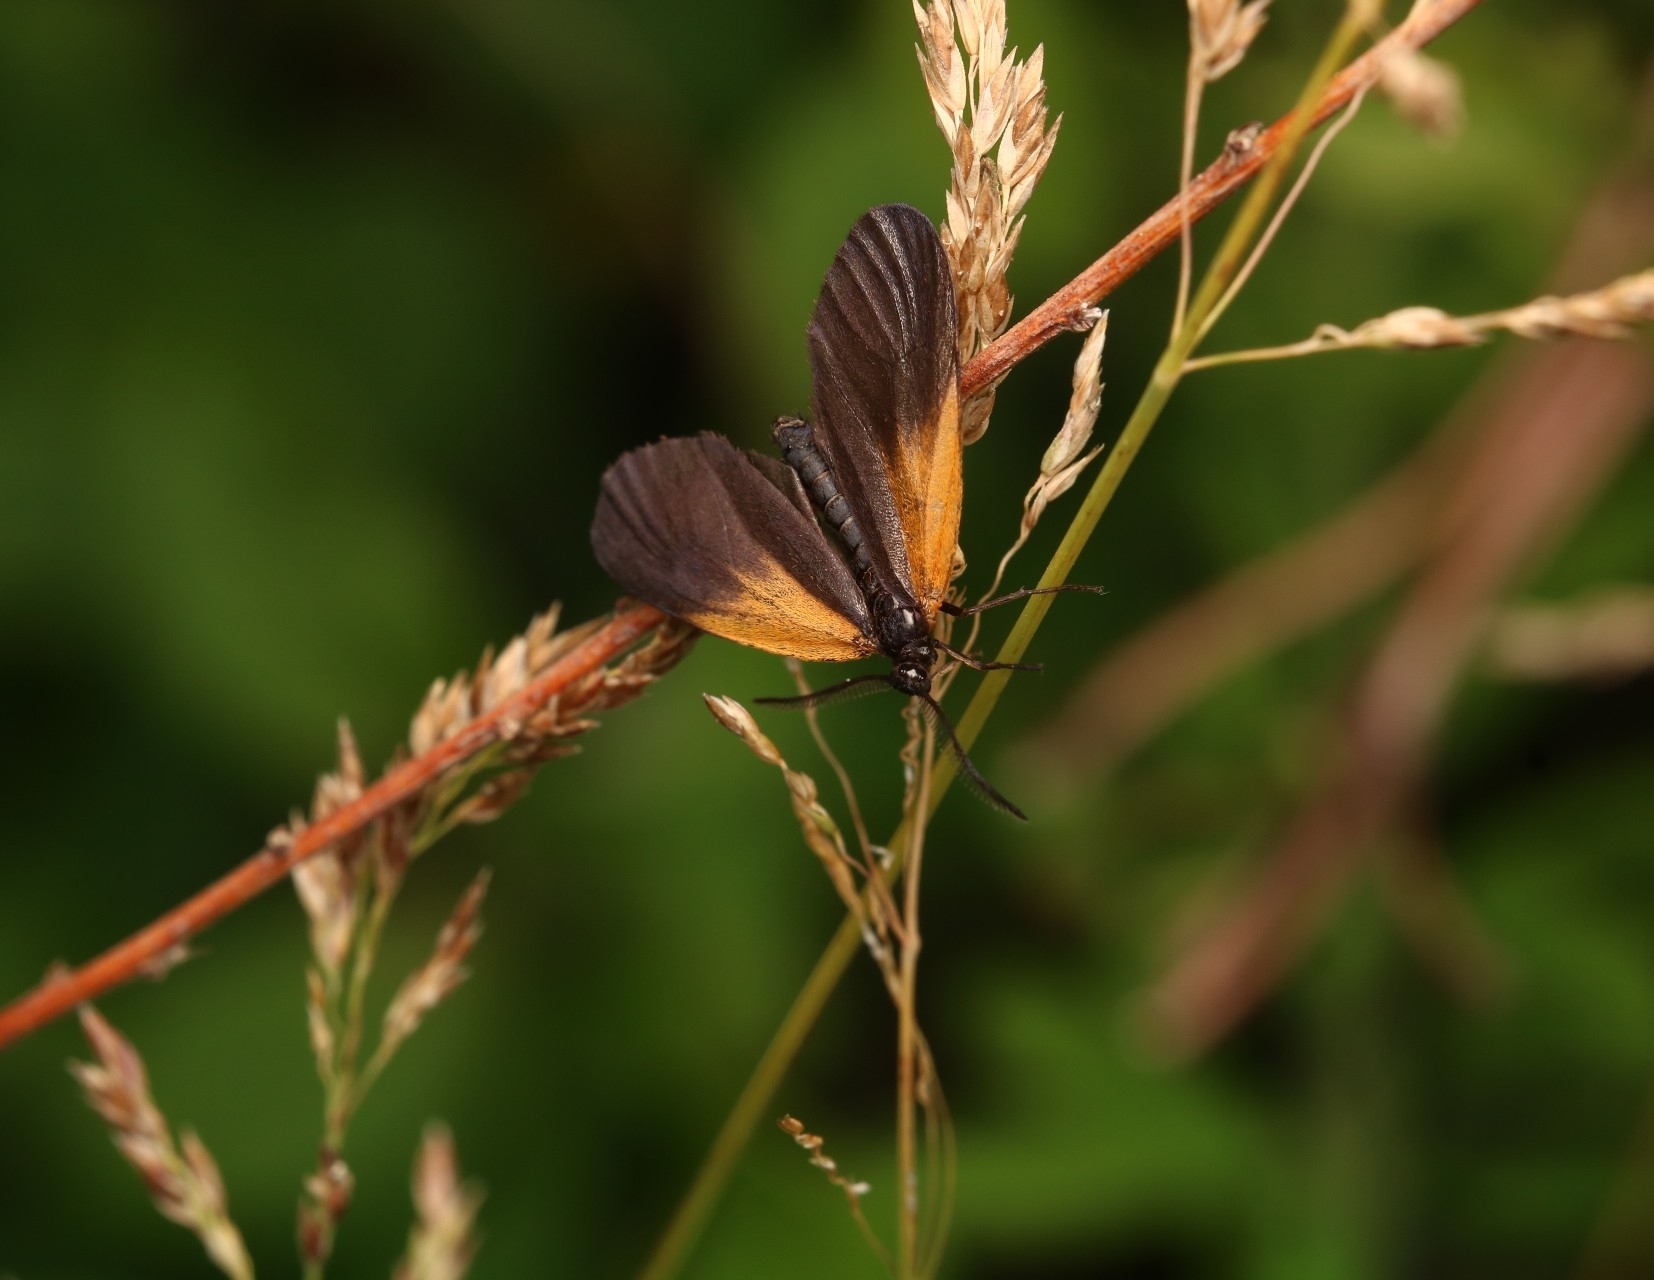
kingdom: Animalia
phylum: Arthropoda
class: Insecta
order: Lepidoptera
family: Zygaenidae
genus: Malthaca
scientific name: Malthaca dimidiata
